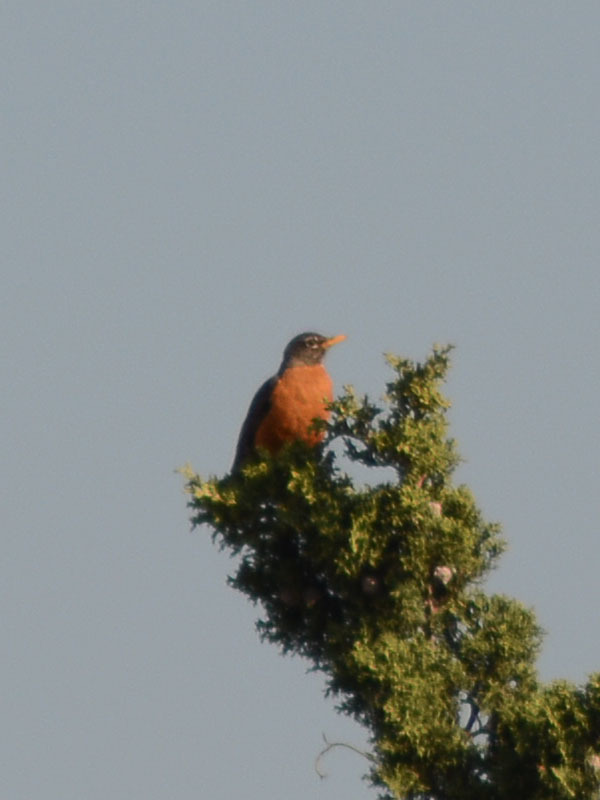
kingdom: Animalia
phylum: Chordata
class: Aves
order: Passeriformes
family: Turdidae
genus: Turdus
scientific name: Turdus migratorius
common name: American robin
